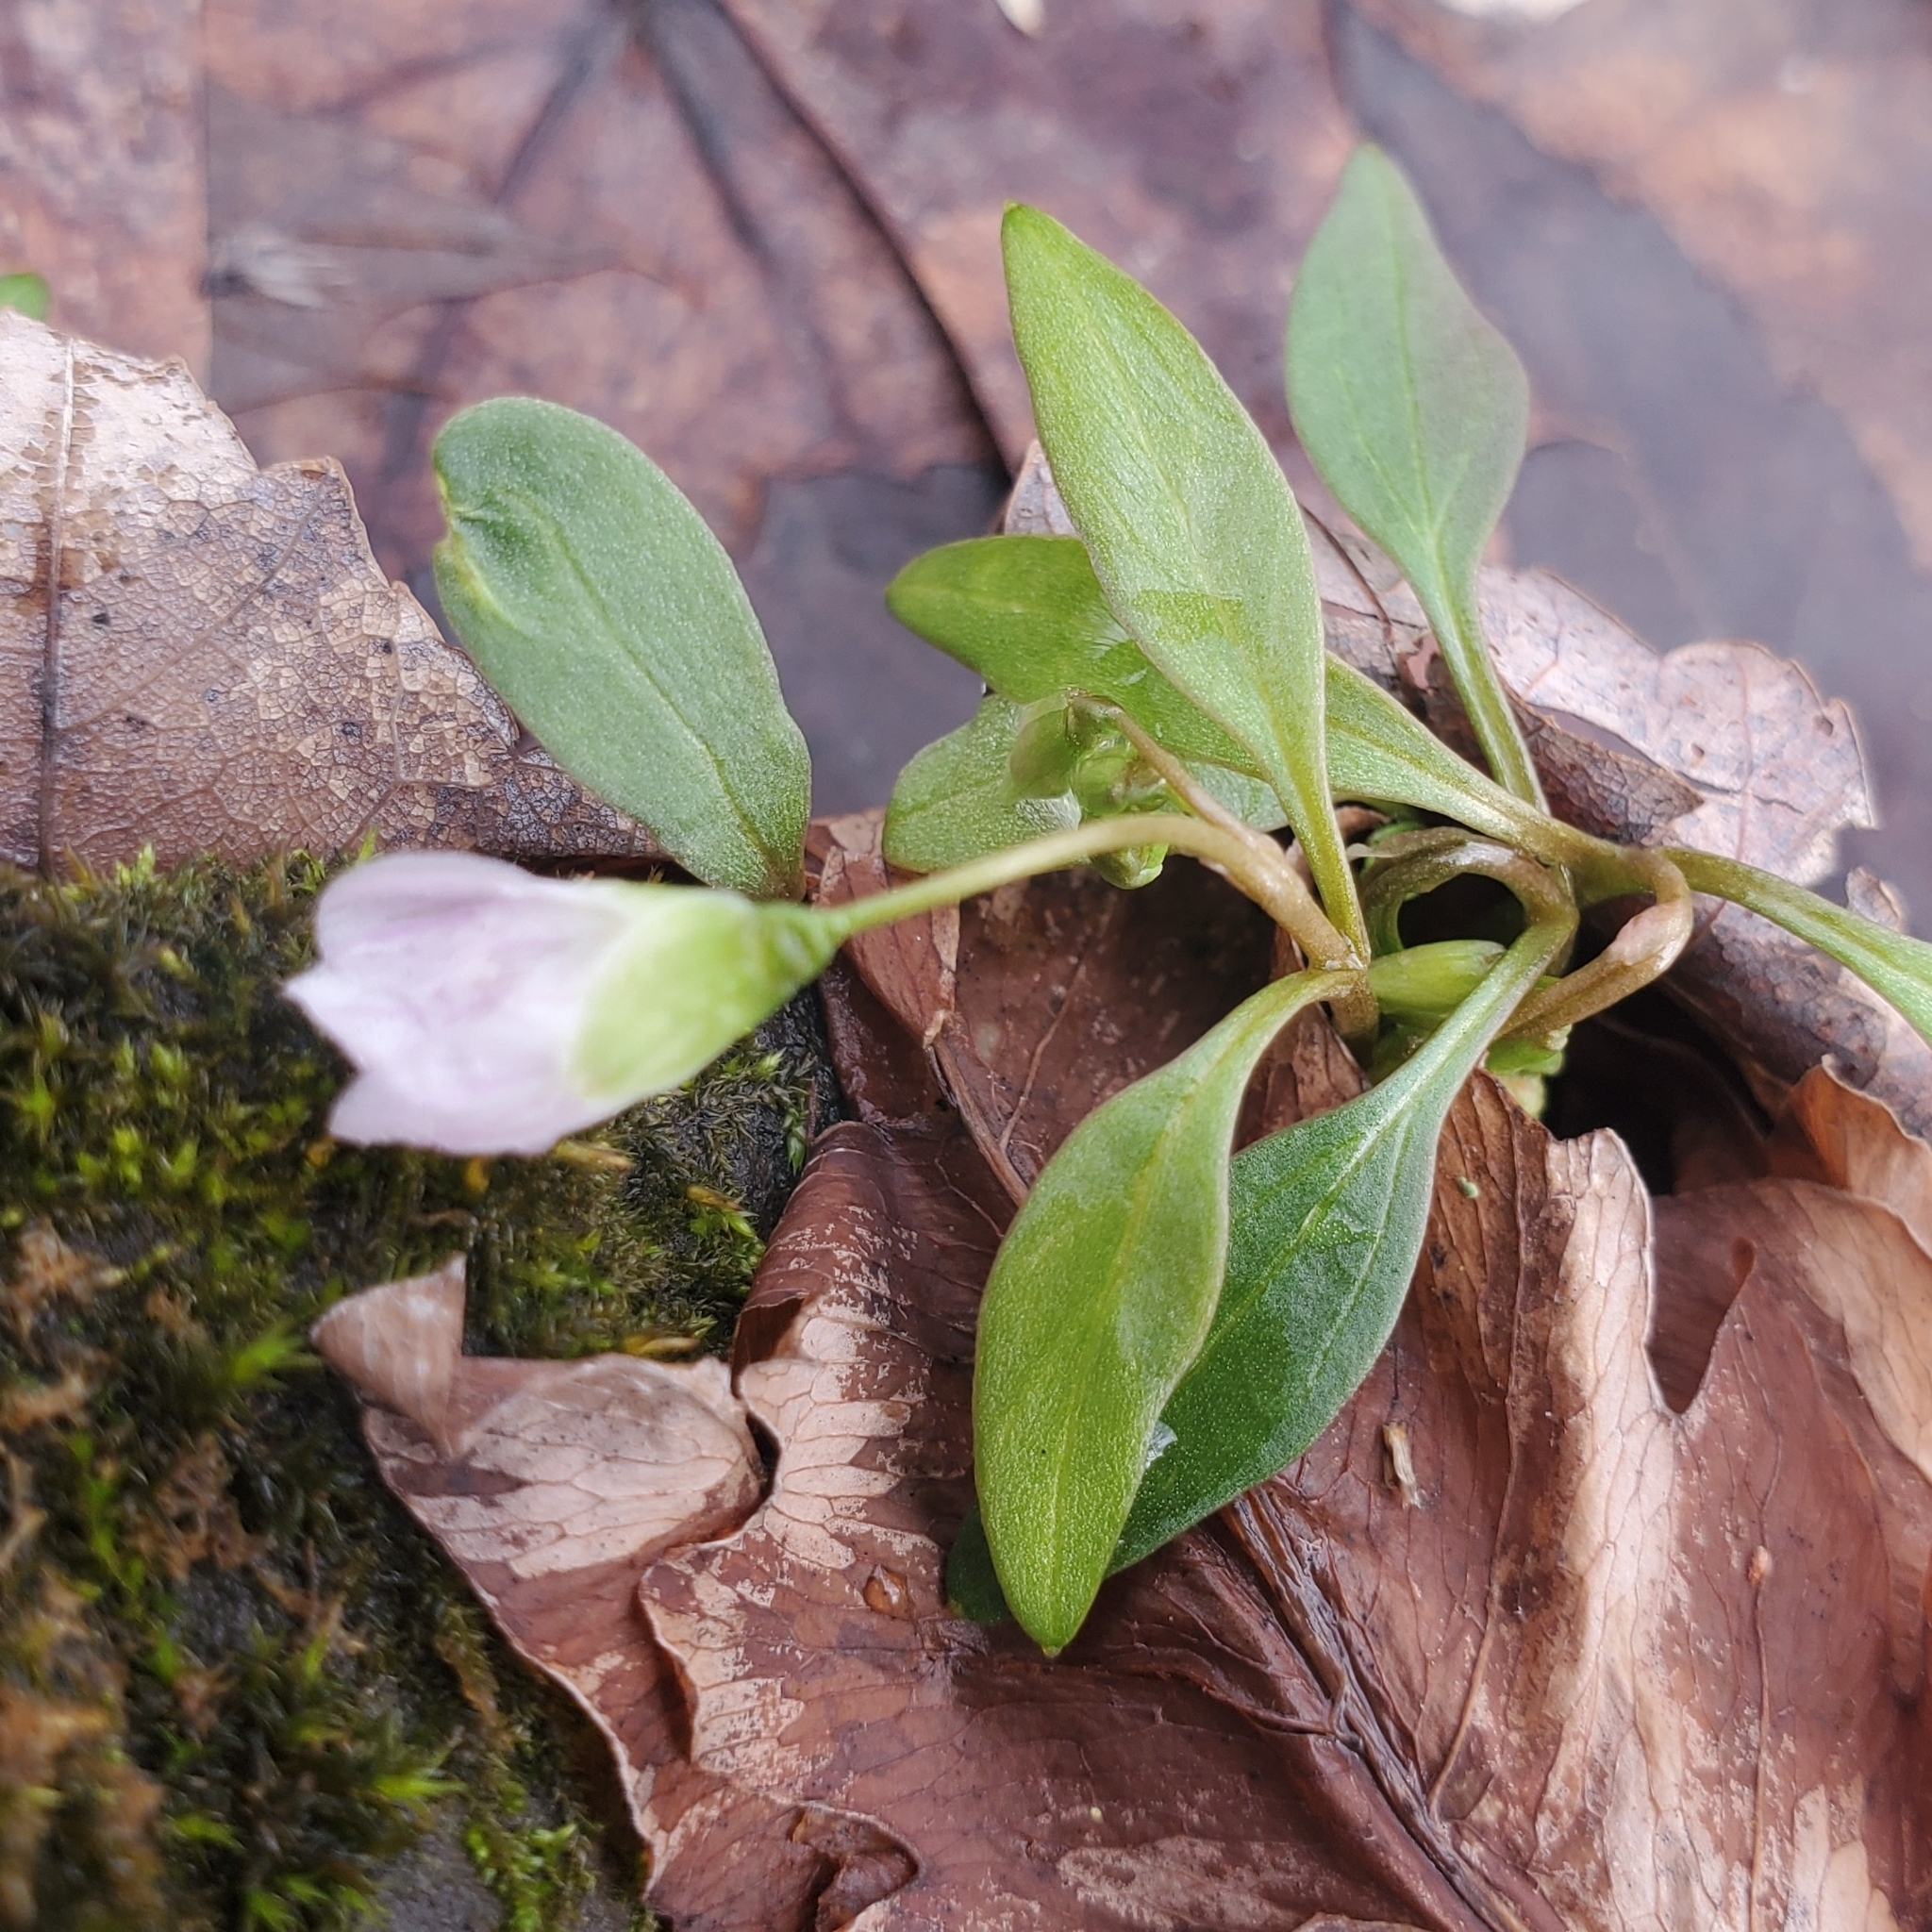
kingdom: Plantae
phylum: Tracheophyta
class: Magnoliopsida
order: Caryophyllales
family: Montiaceae
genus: Claytonia
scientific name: Claytonia caroliniana
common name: Carolina spring beauty
